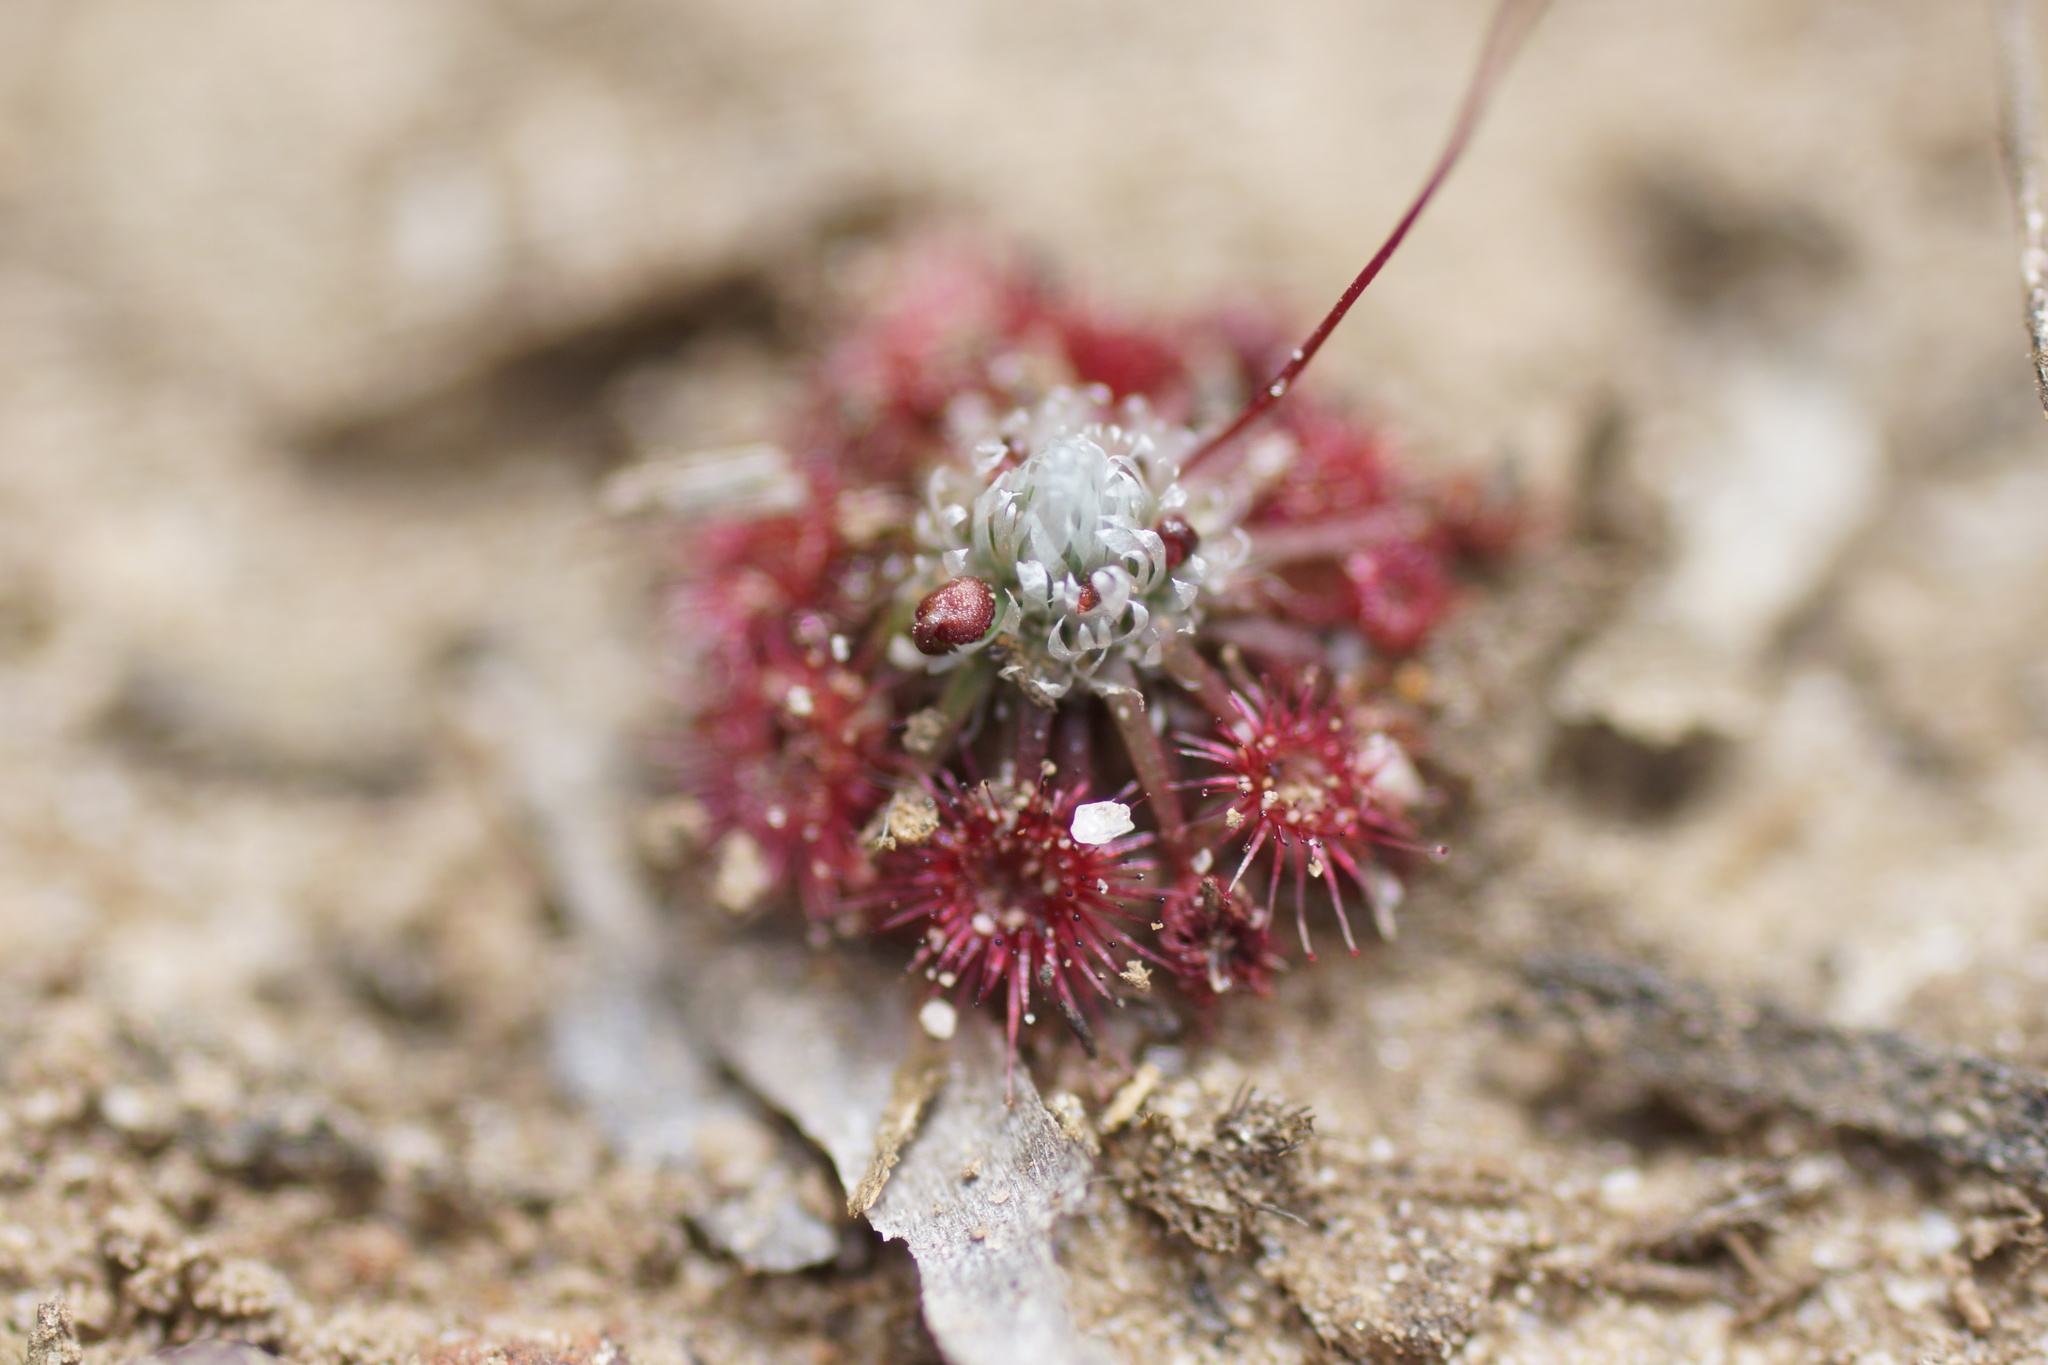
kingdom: Plantae
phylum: Tracheophyta
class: Magnoliopsida
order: Caryophyllales
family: Droseraceae
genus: Drosera
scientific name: Drosera pygmaea
